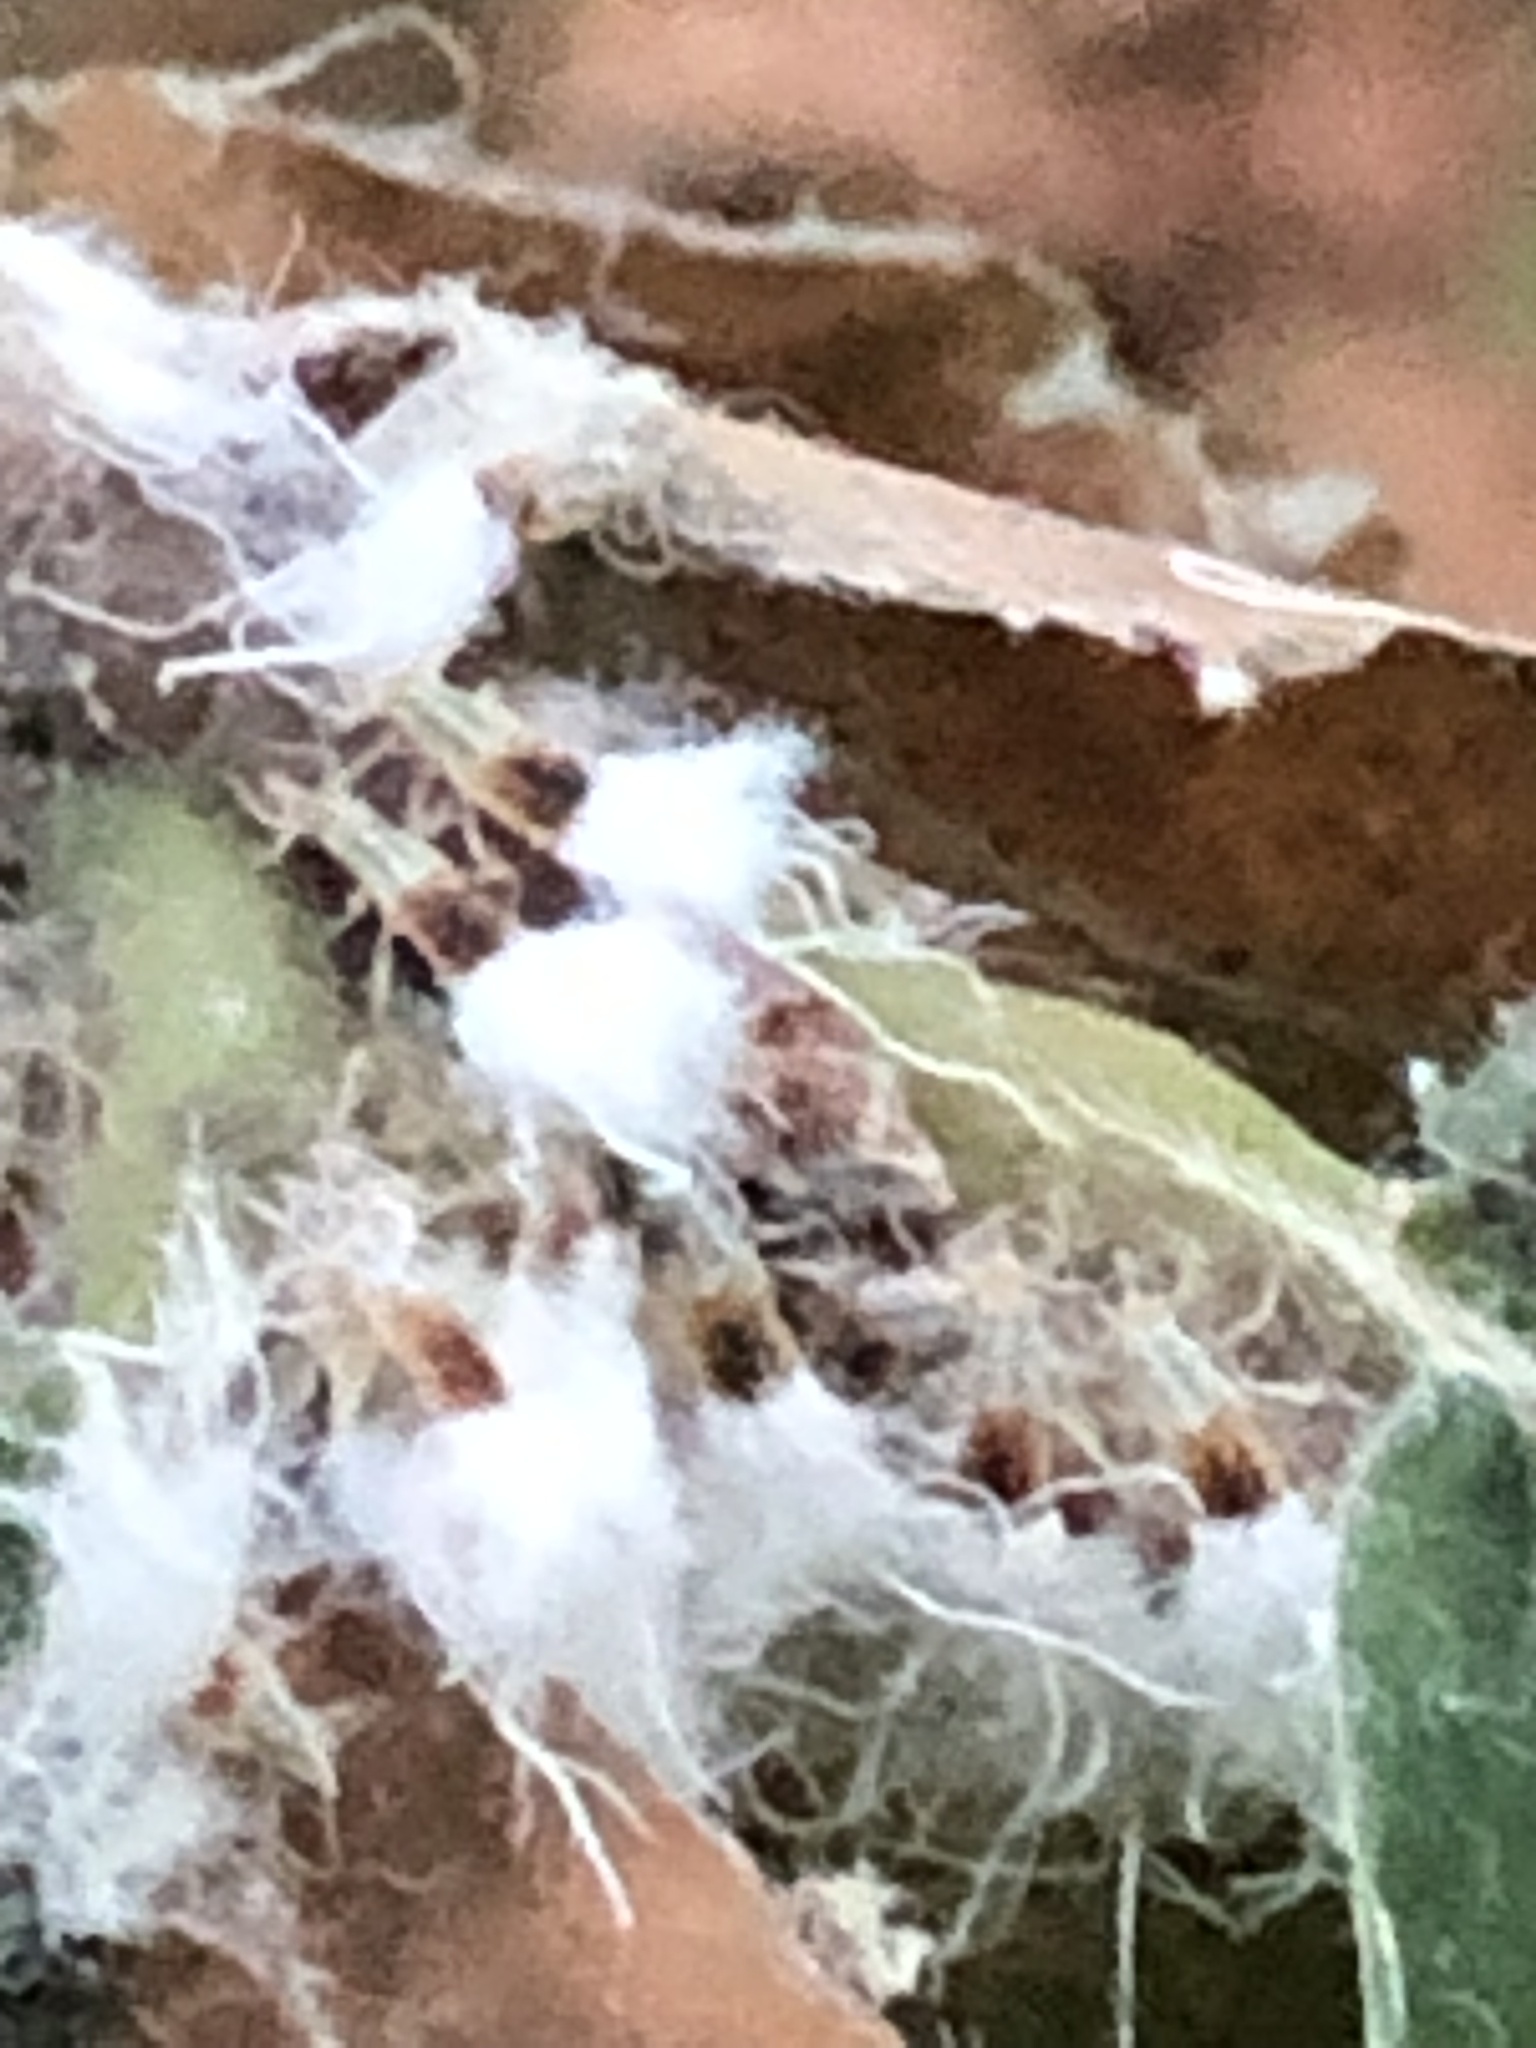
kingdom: Animalia
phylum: Arthropoda
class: Insecta
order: Hemiptera
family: Aphididae
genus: Grylloprociphilus
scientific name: Grylloprociphilus imbricator
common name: Beech blight aphid
